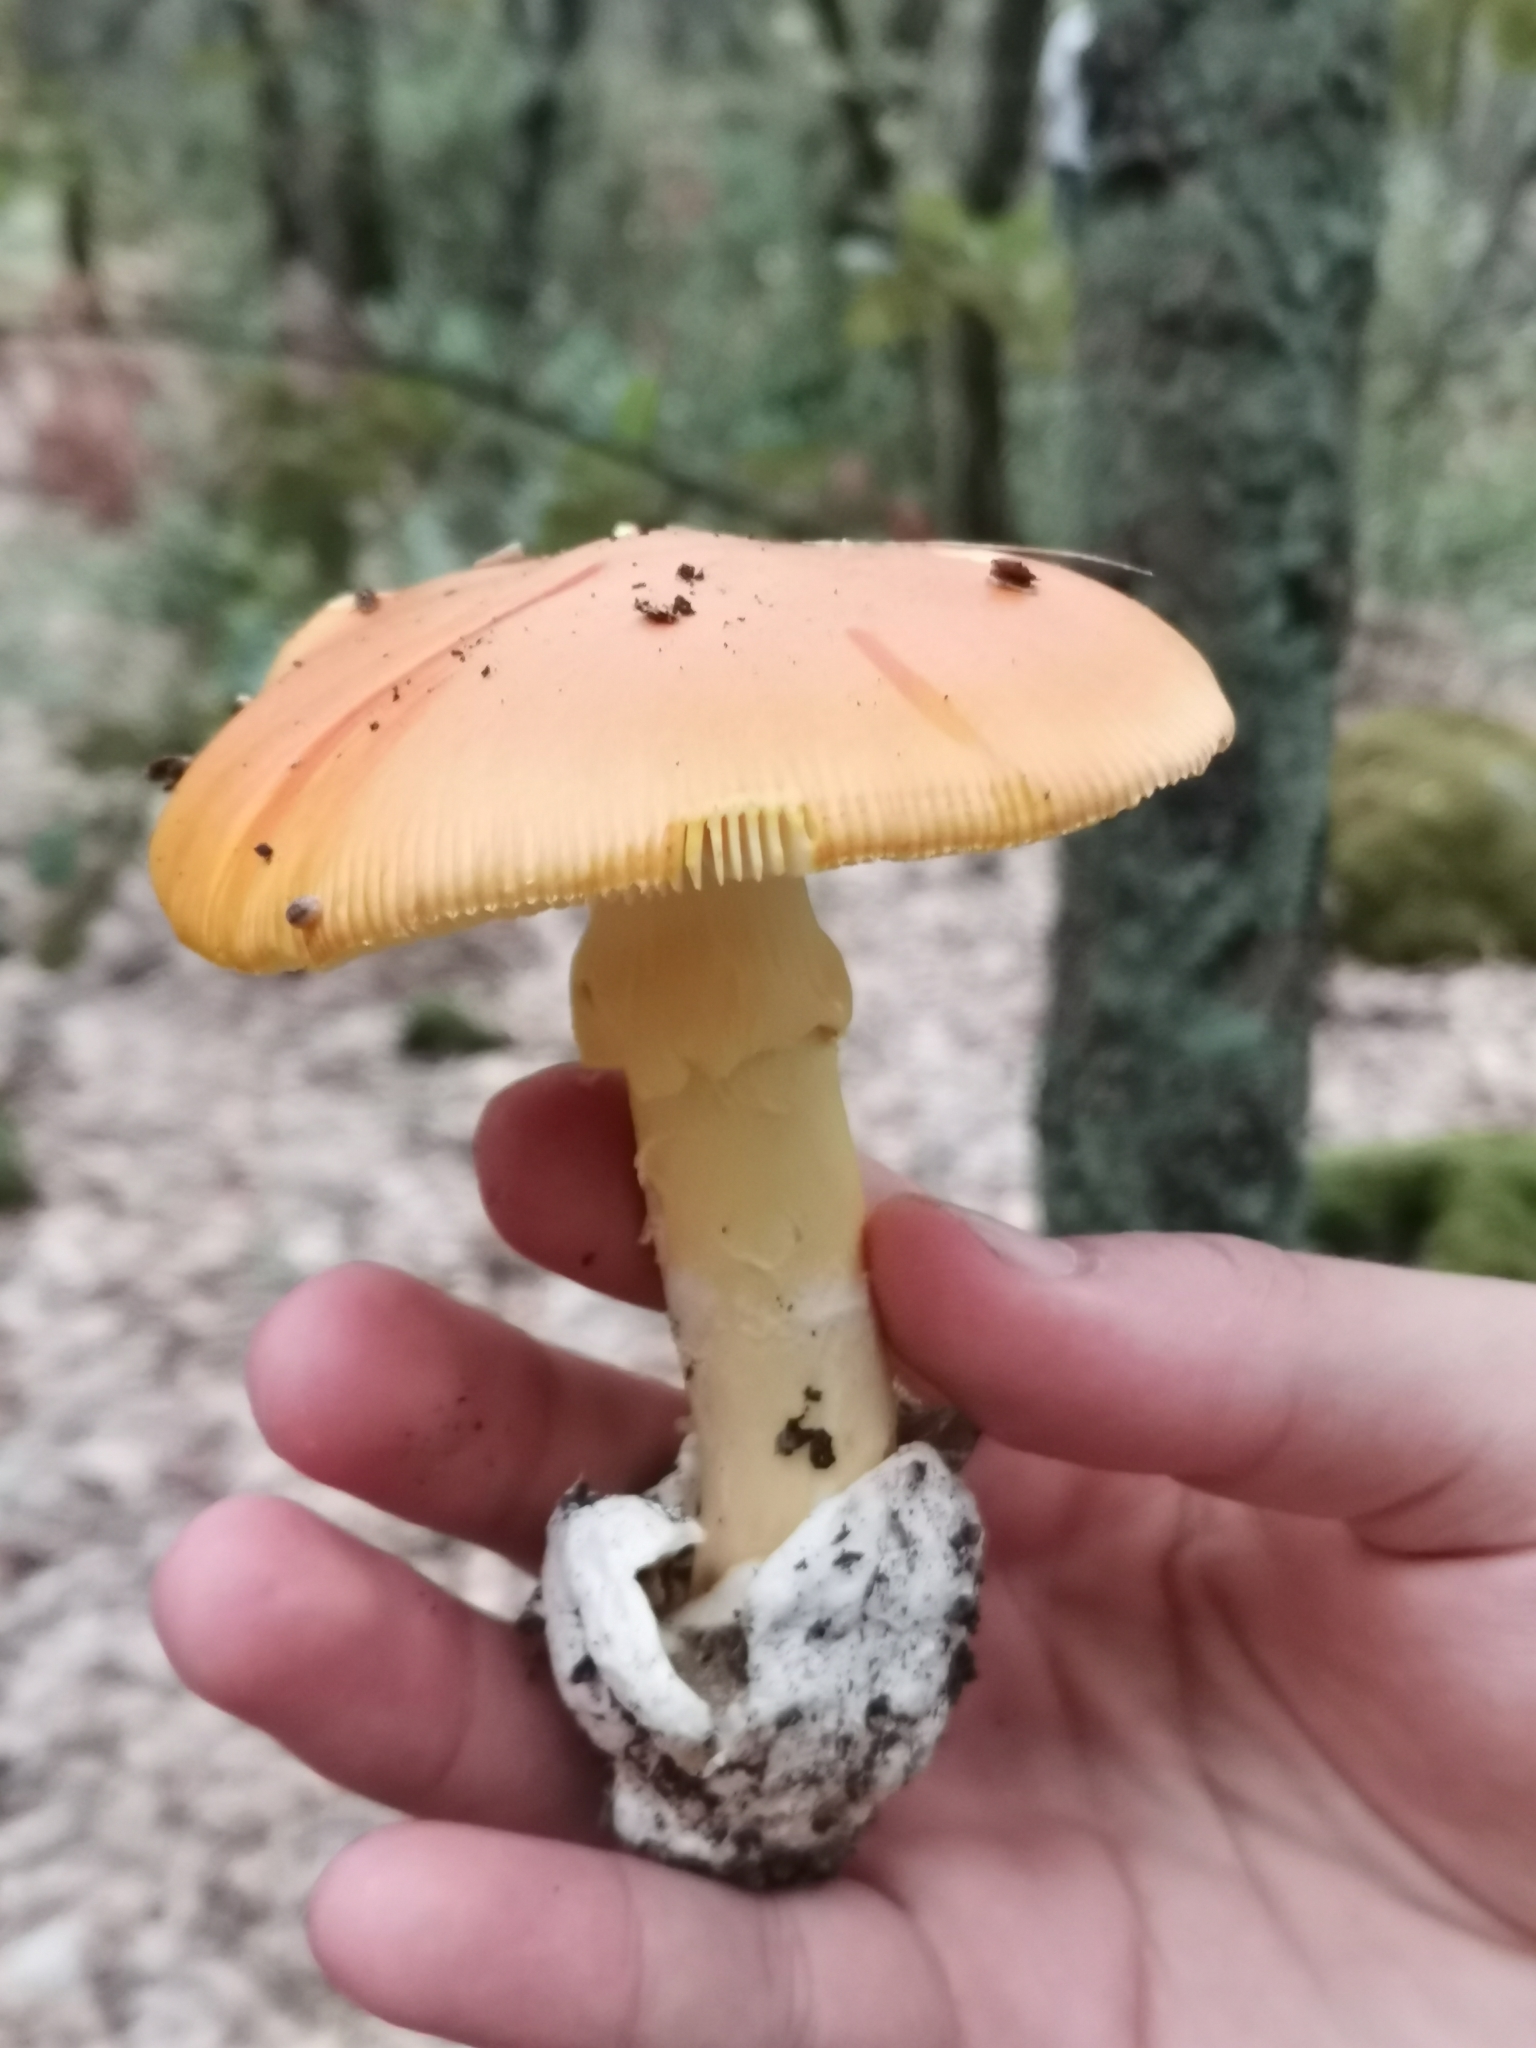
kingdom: Fungi
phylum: Basidiomycota
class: Agaricomycetes
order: Agaricales
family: Amanitaceae
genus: Amanita
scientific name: Amanita caesarea
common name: Caesar's amanita
